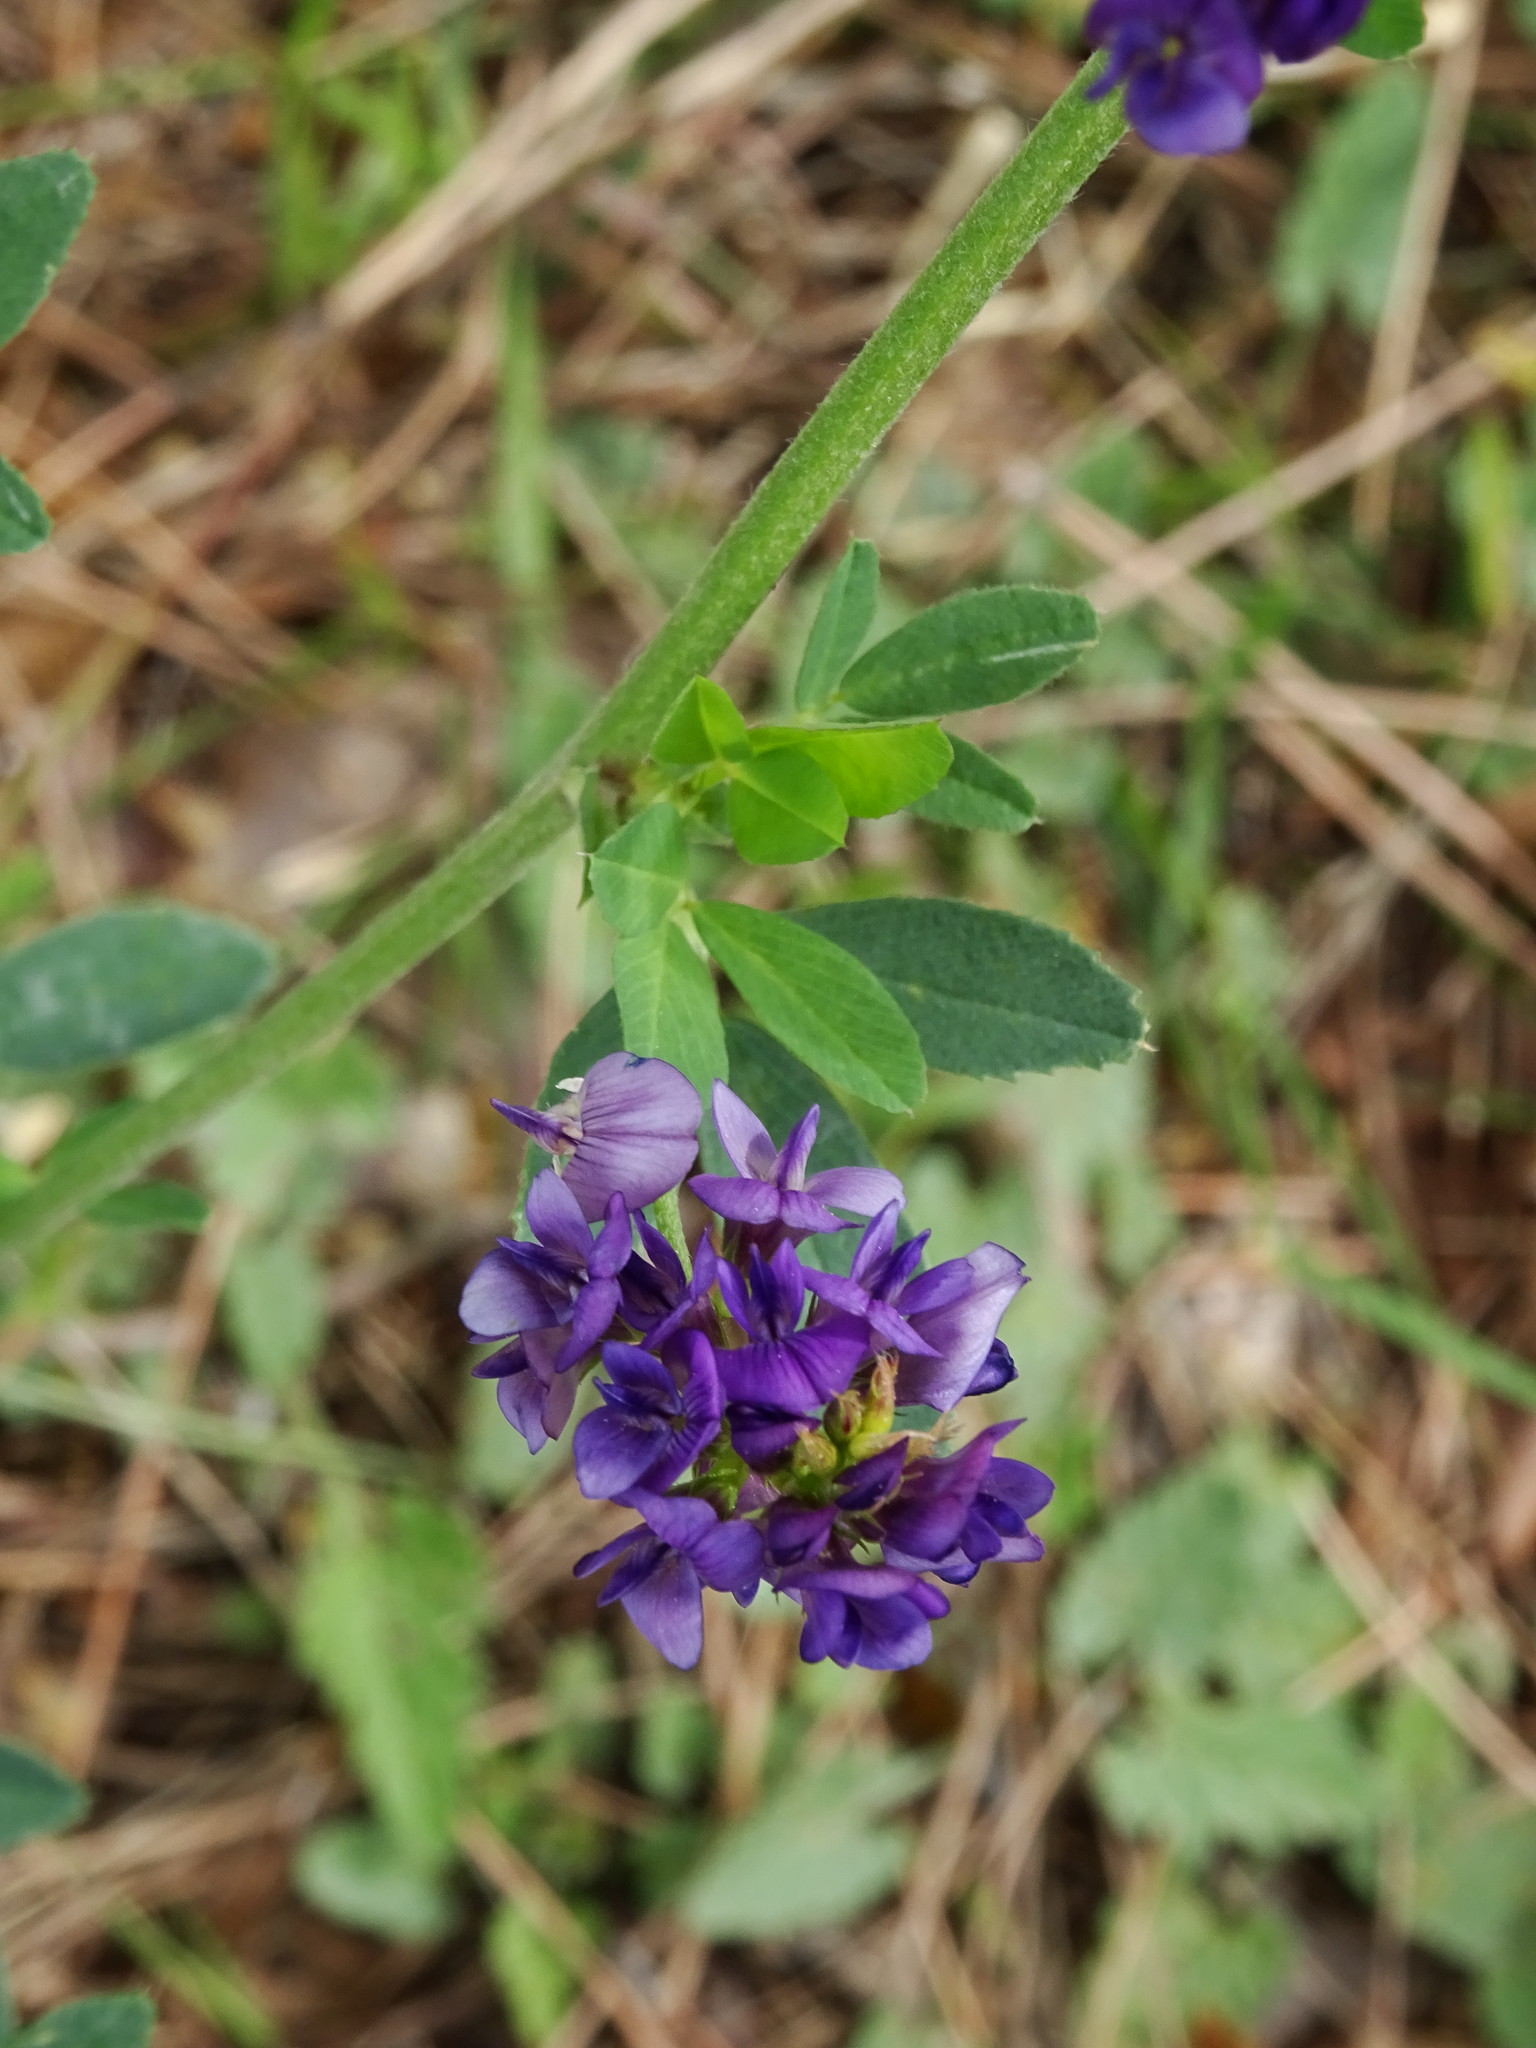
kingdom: Plantae
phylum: Tracheophyta
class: Magnoliopsida
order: Fabales
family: Fabaceae
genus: Medicago
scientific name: Medicago sativa
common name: Alfalfa
